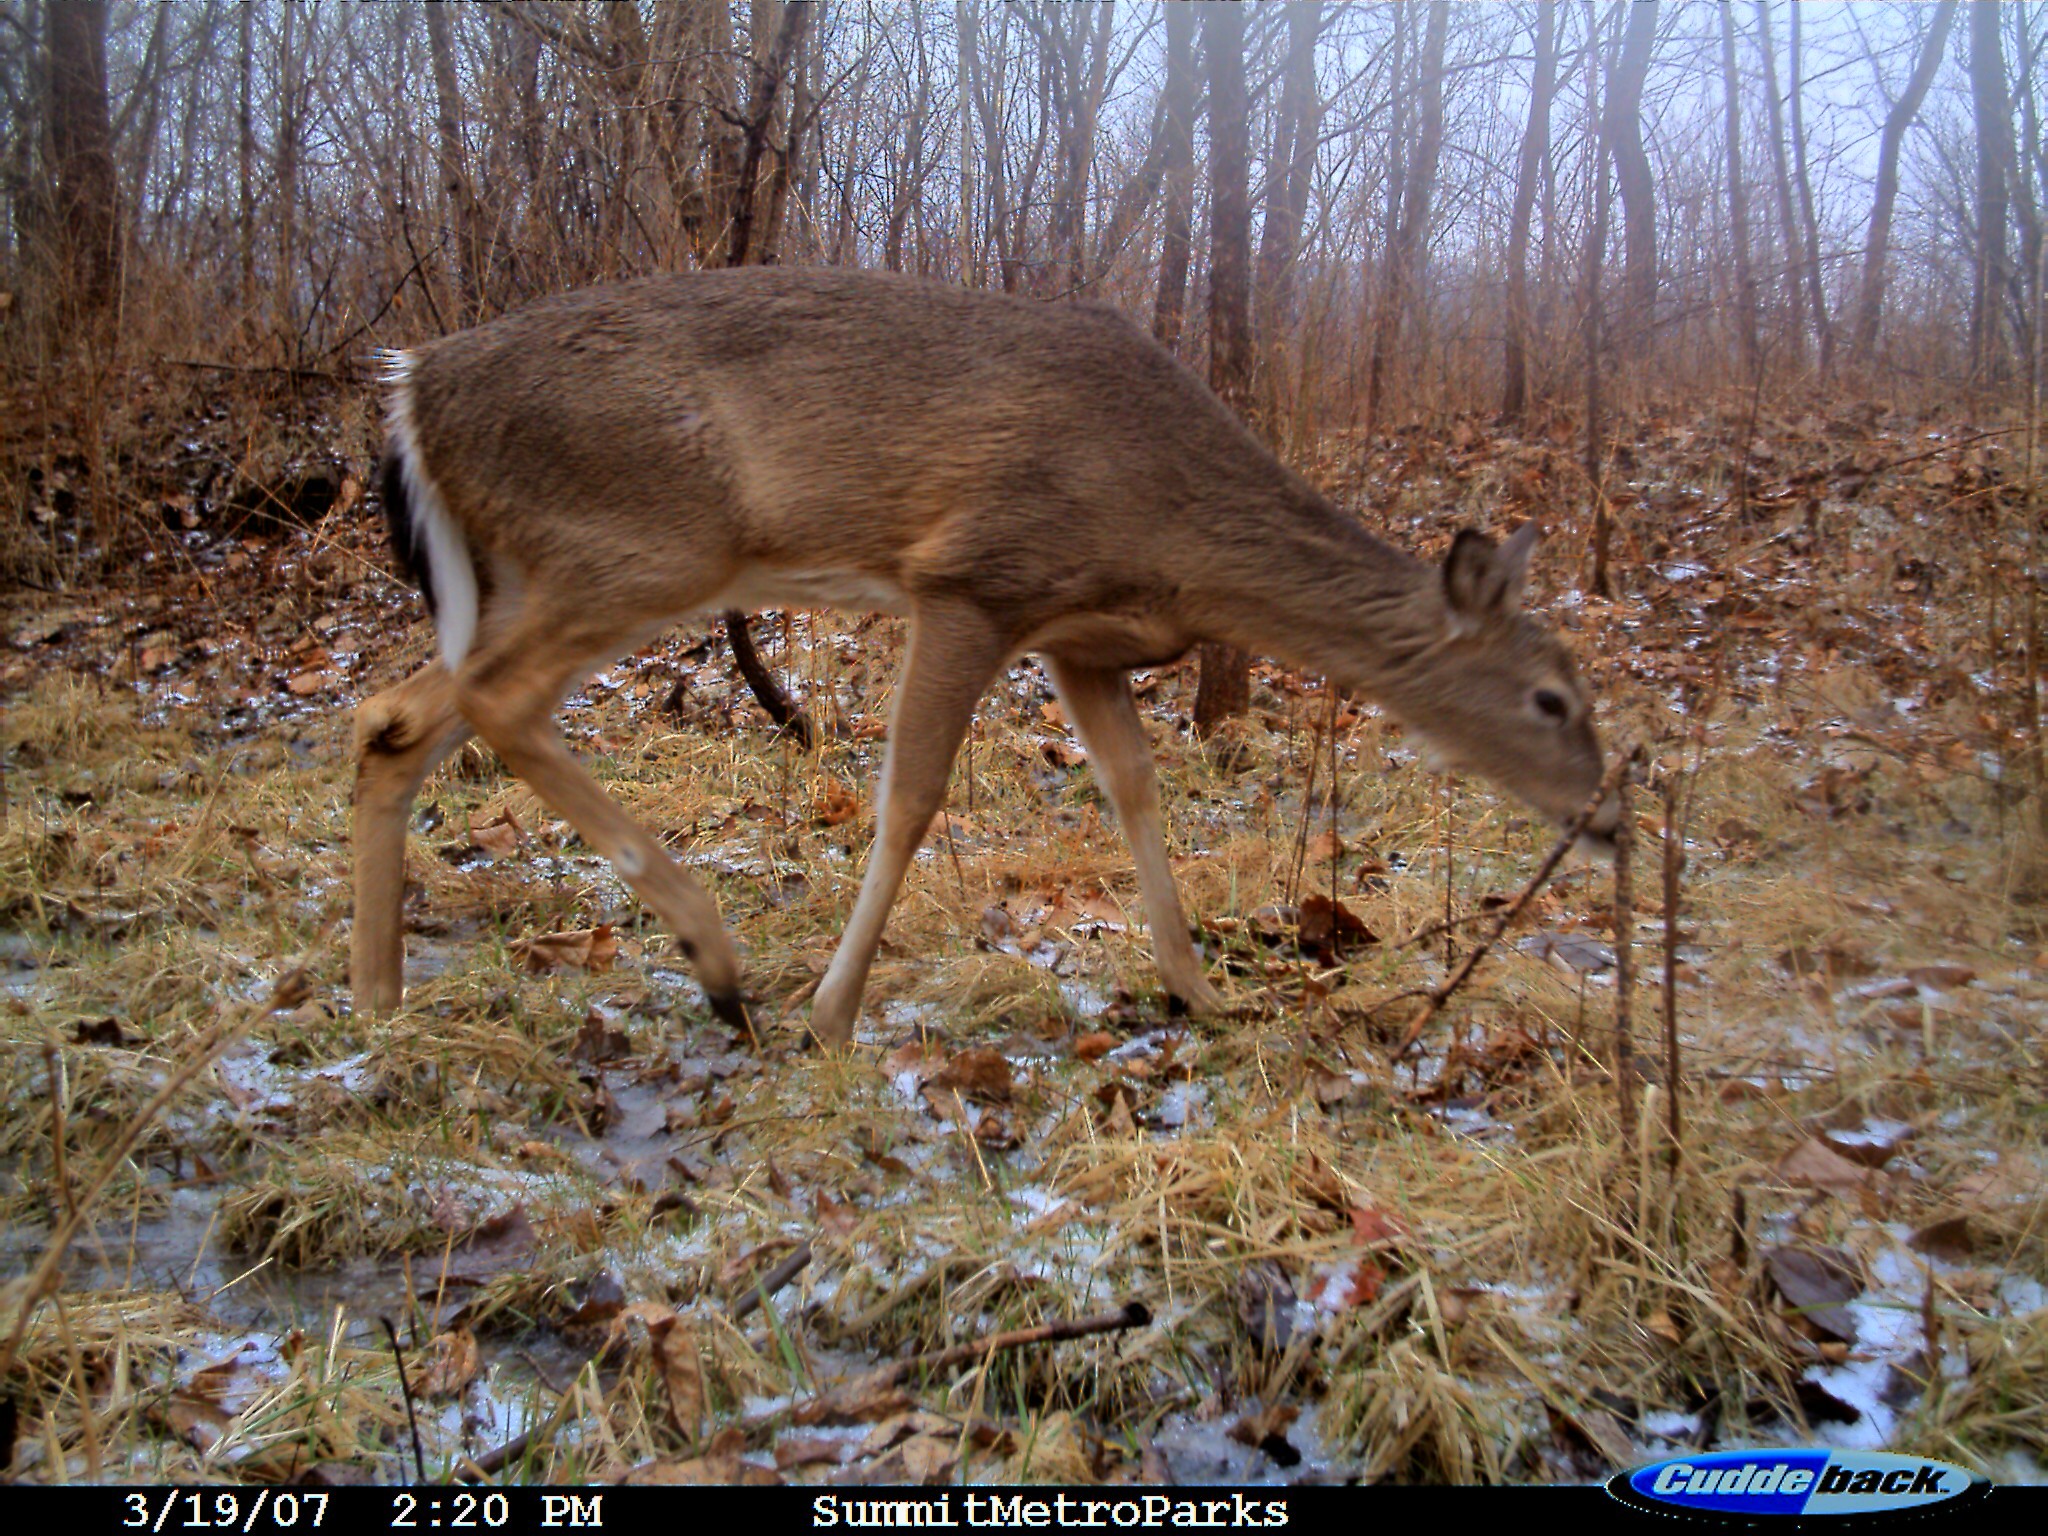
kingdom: Animalia
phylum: Chordata
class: Mammalia
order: Artiodactyla
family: Cervidae
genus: Odocoileus
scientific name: Odocoileus virginianus
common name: White-tailed deer
